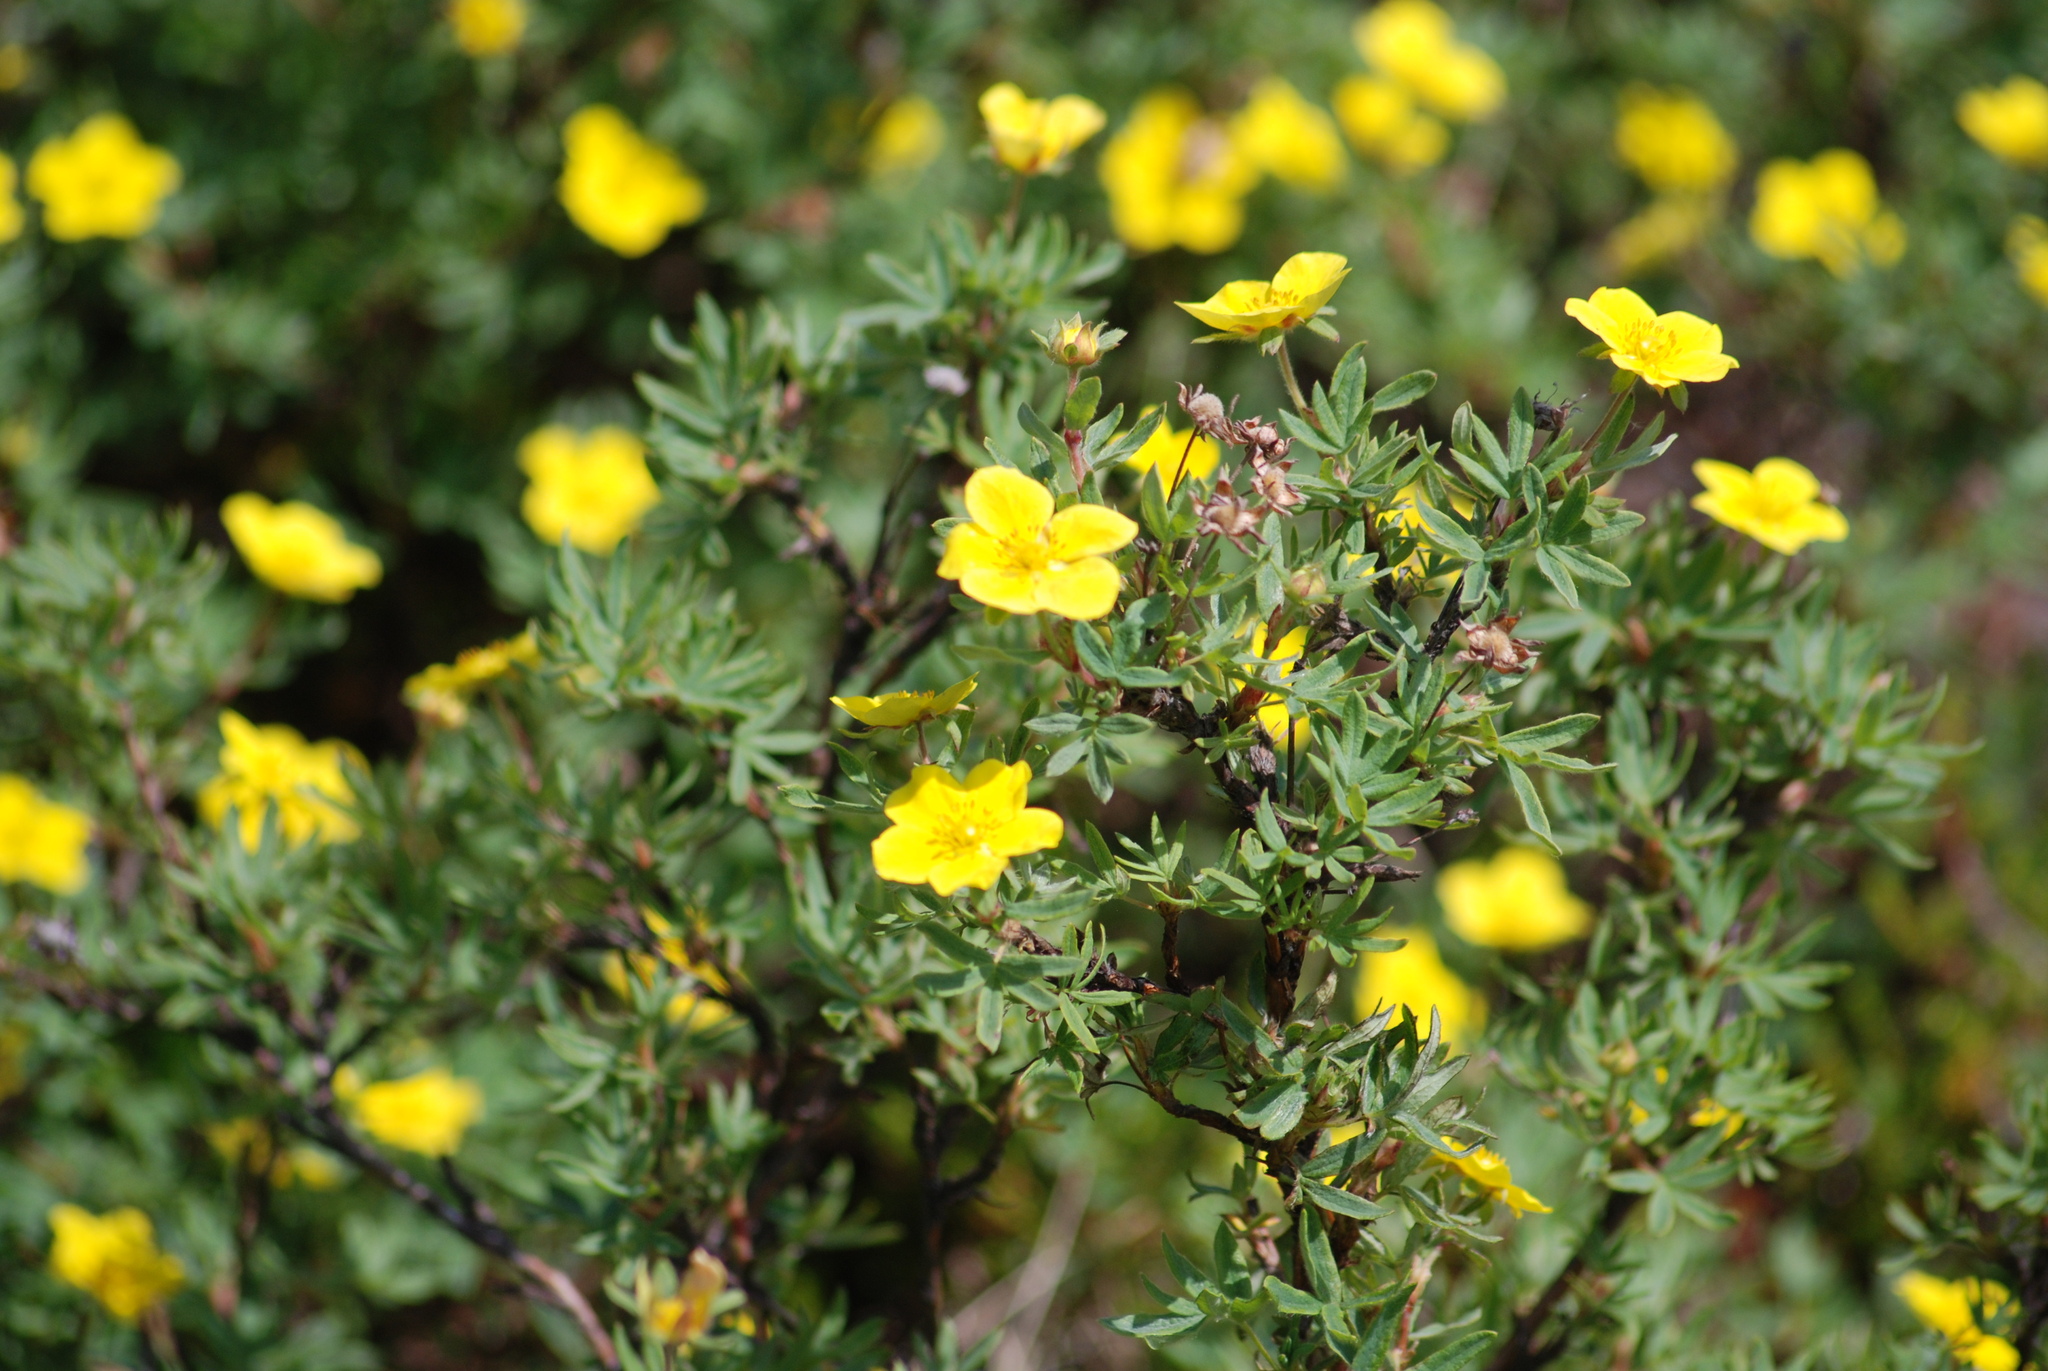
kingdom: Plantae
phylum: Tracheophyta
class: Magnoliopsida
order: Rosales
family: Rosaceae
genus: Dasiphora
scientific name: Dasiphora fruticosa
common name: Shrubby cinquefoil
